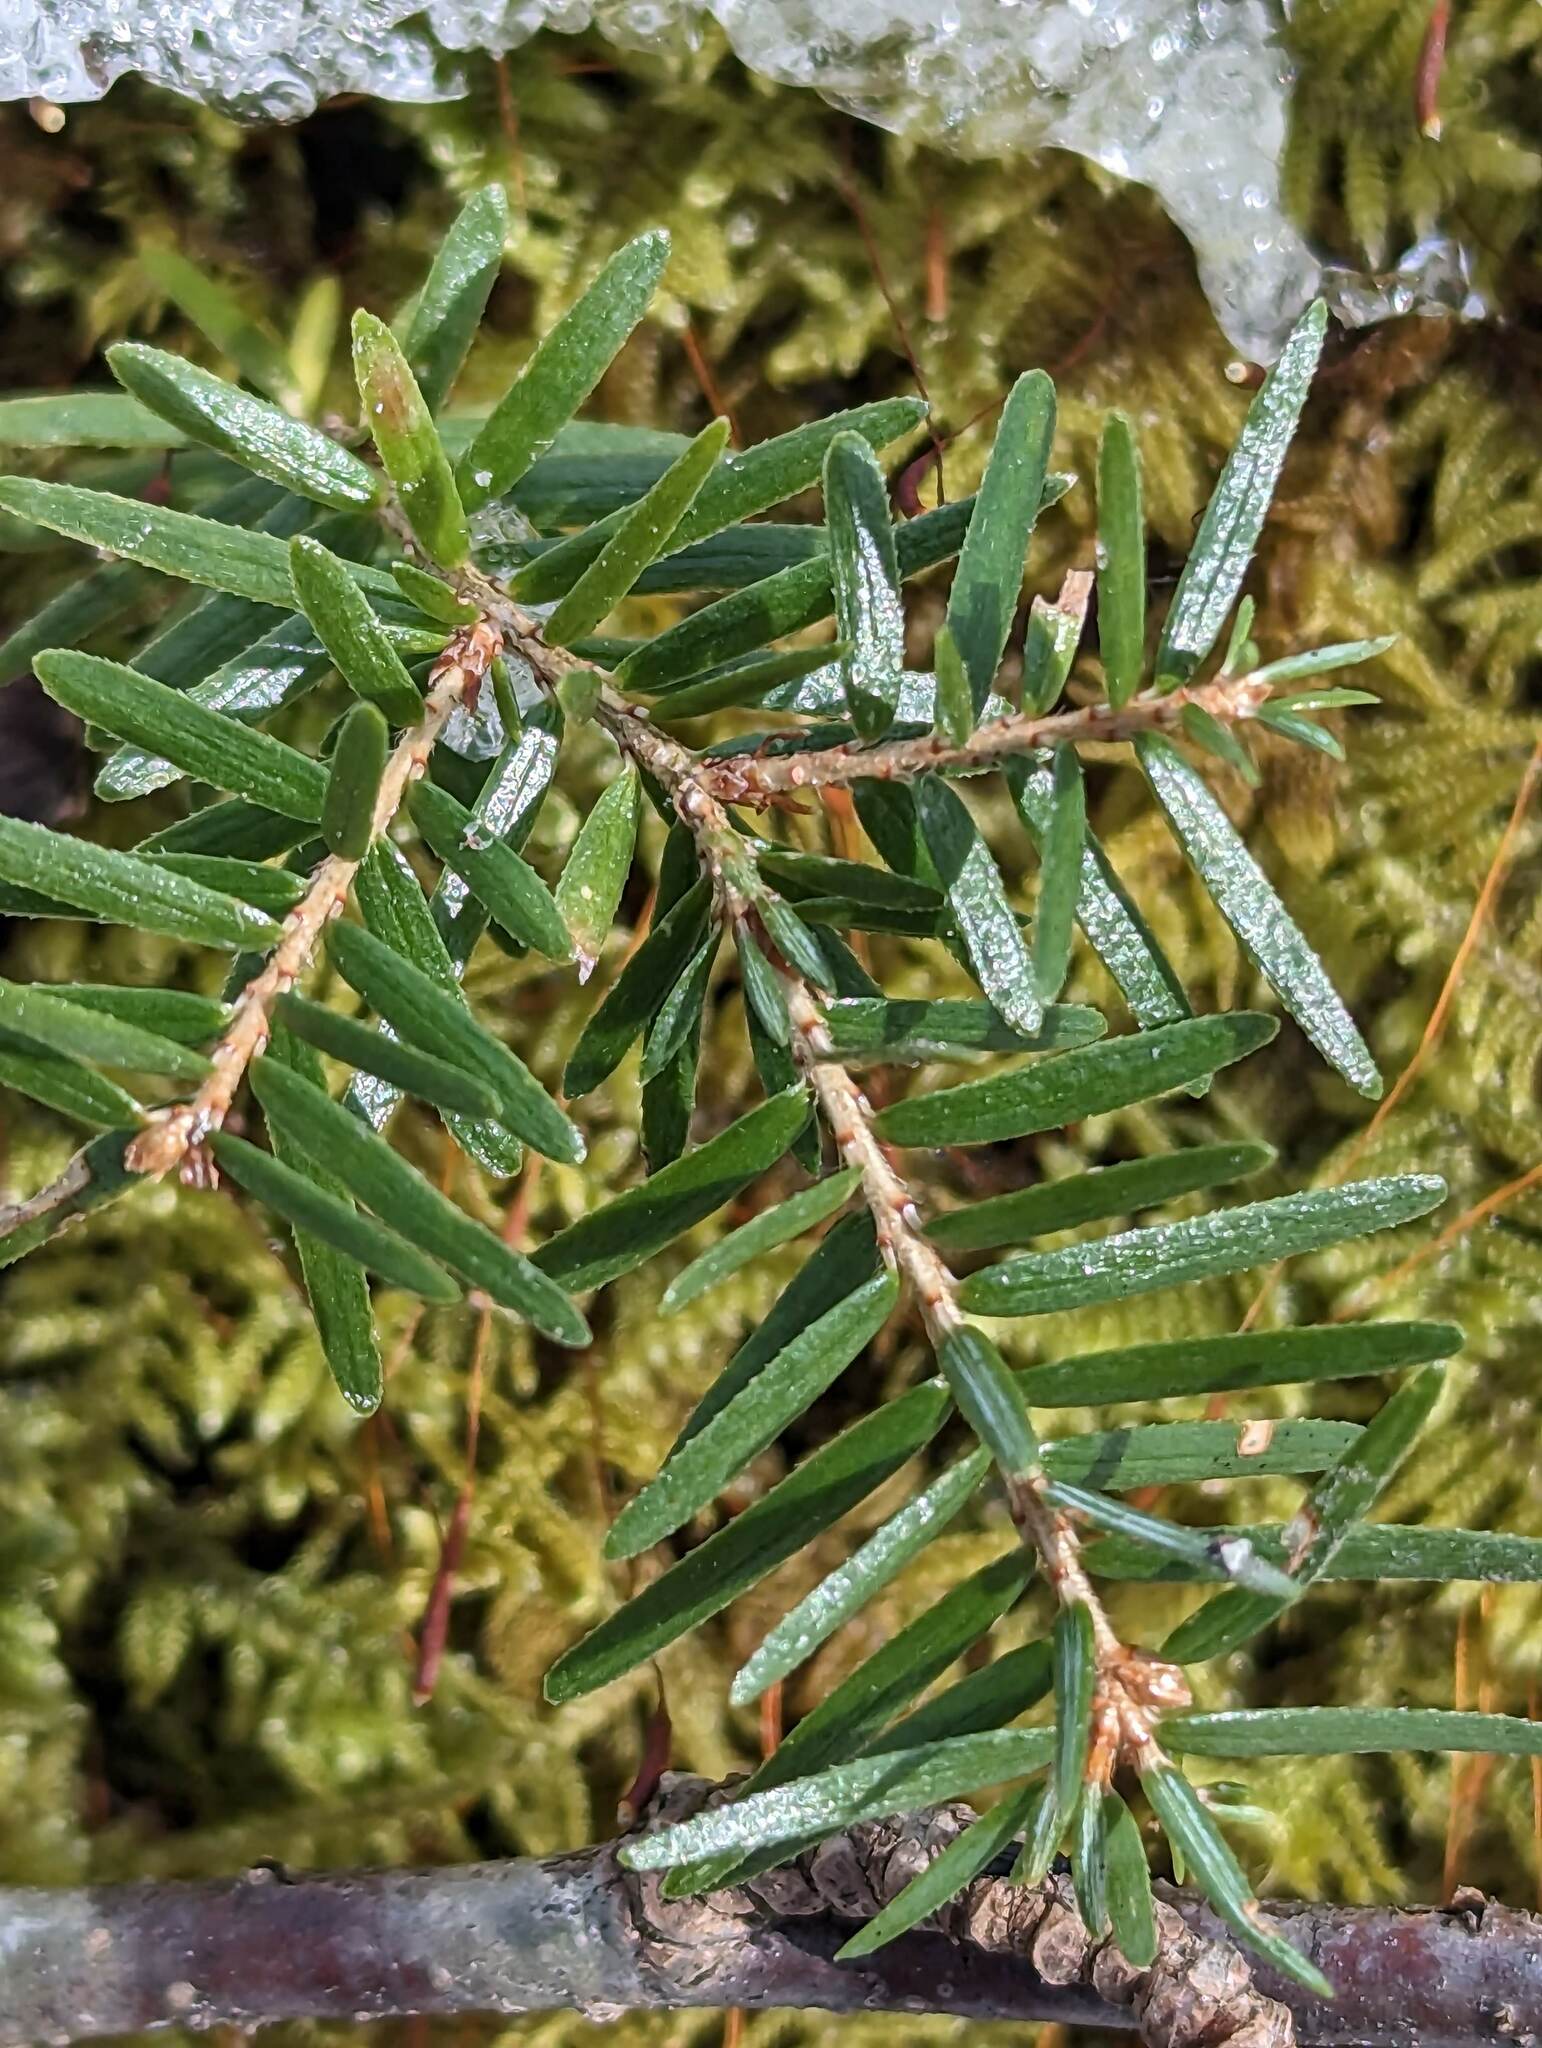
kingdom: Plantae
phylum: Tracheophyta
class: Pinopsida
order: Pinales
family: Pinaceae
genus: Tsuga
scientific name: Tsuga canadensis
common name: Eastern hemlock
